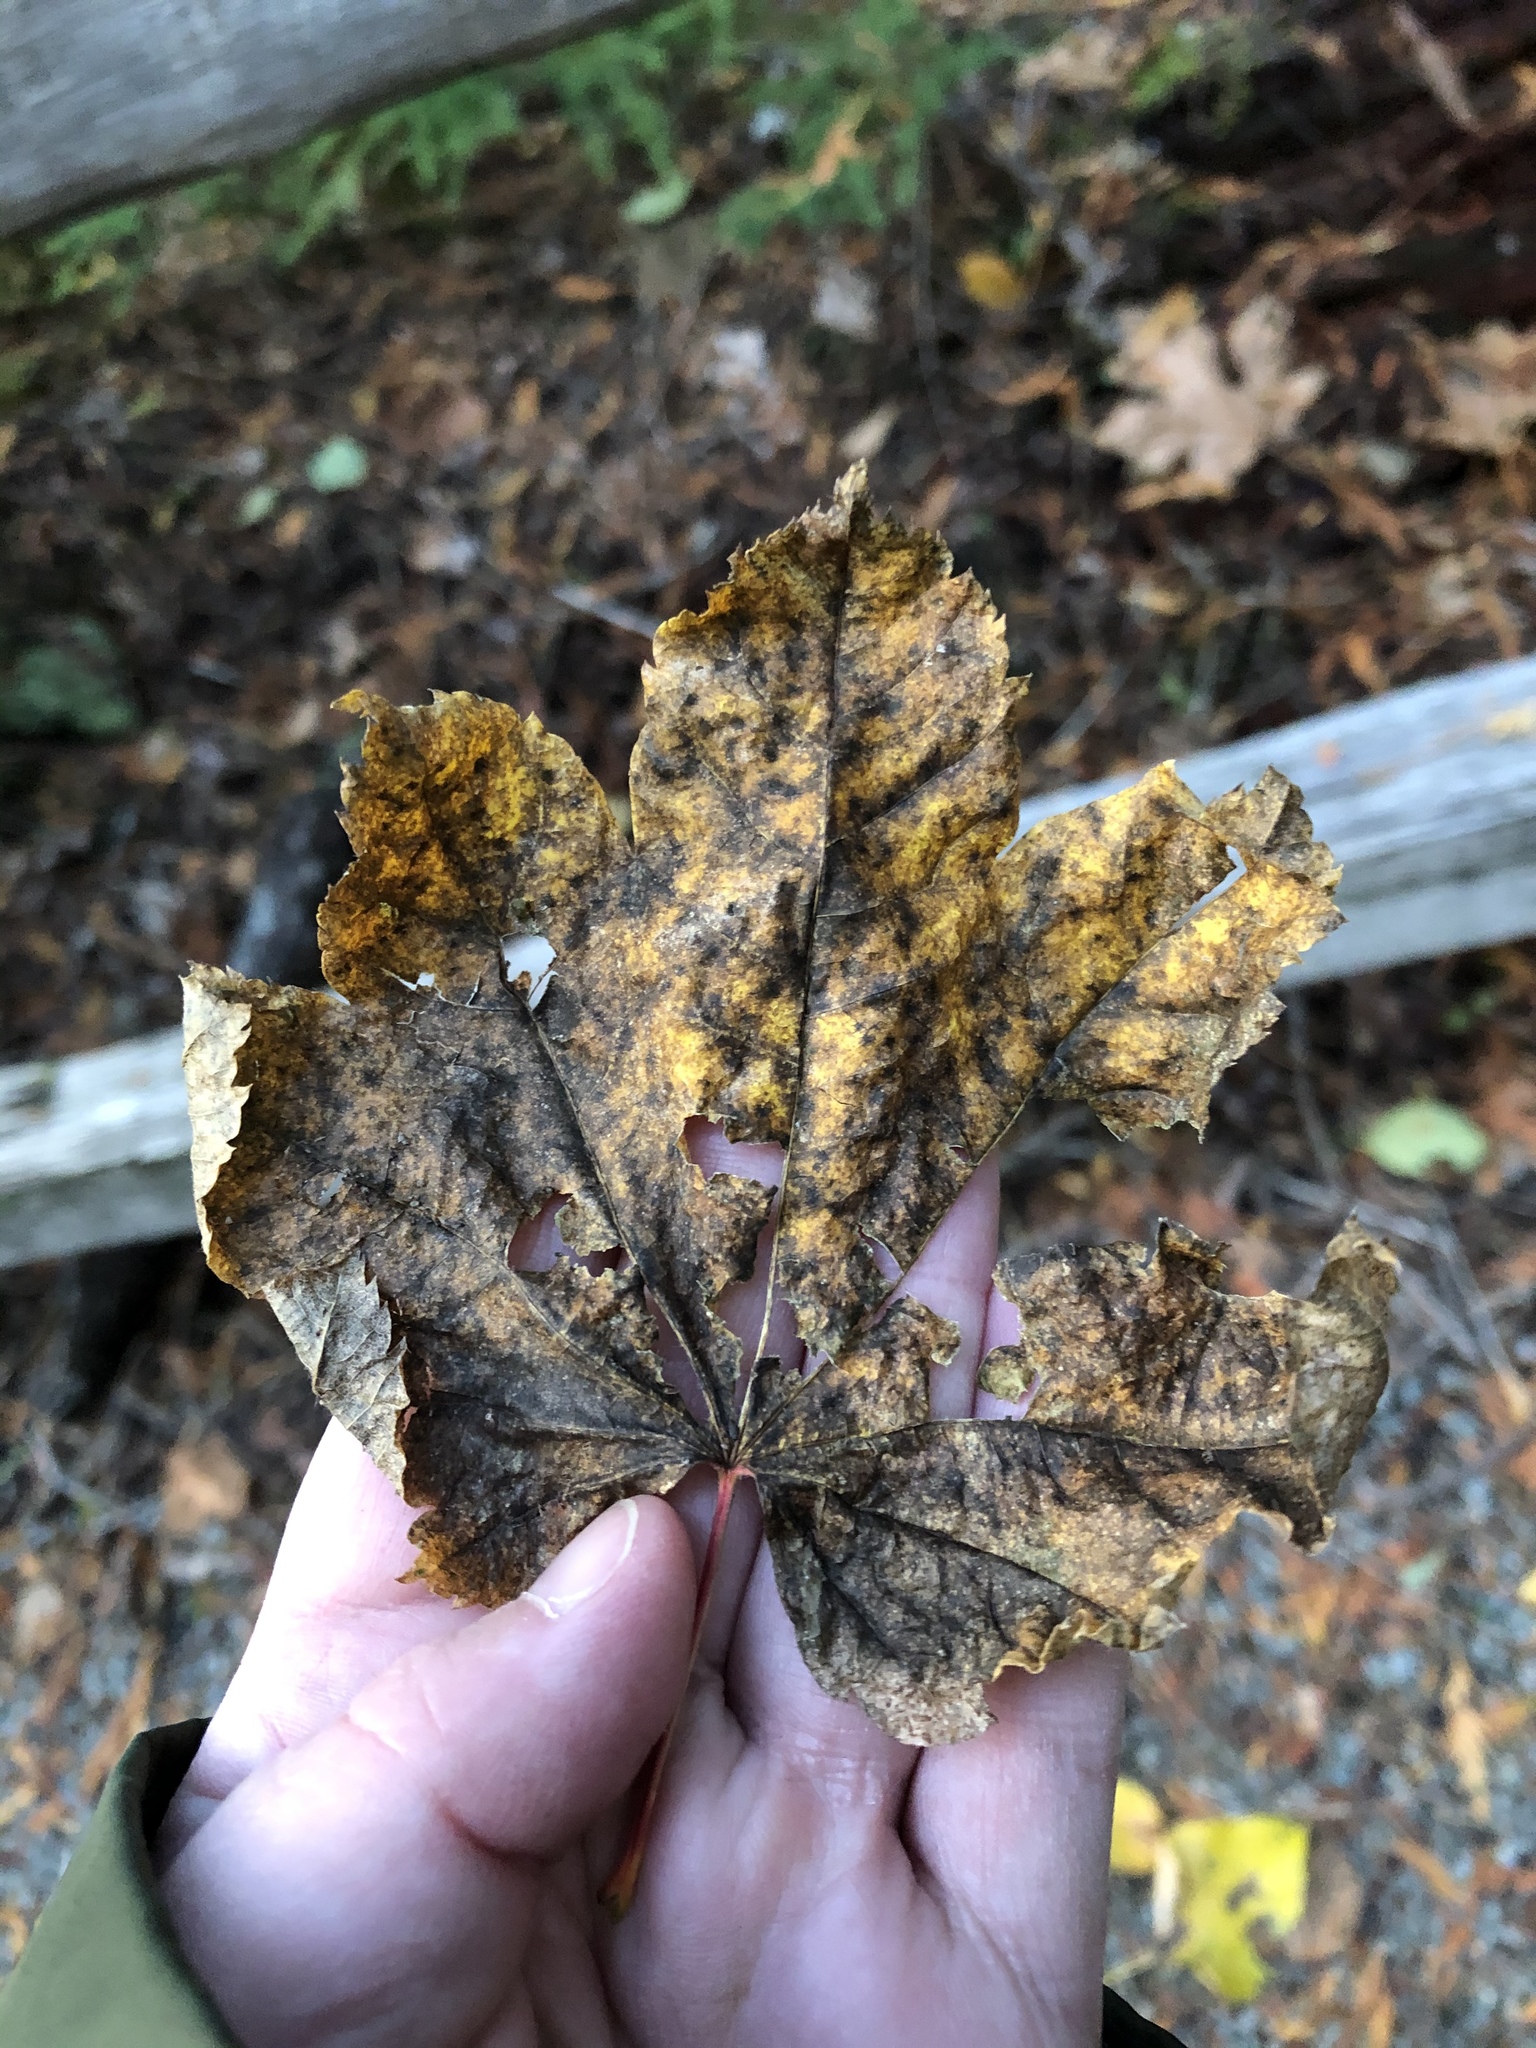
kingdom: Plantae
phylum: Tracheophyta
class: Magnoliopsida
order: Sapindales
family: Sapindaceae
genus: Acer
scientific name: Acer circinatum
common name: Vine maple
